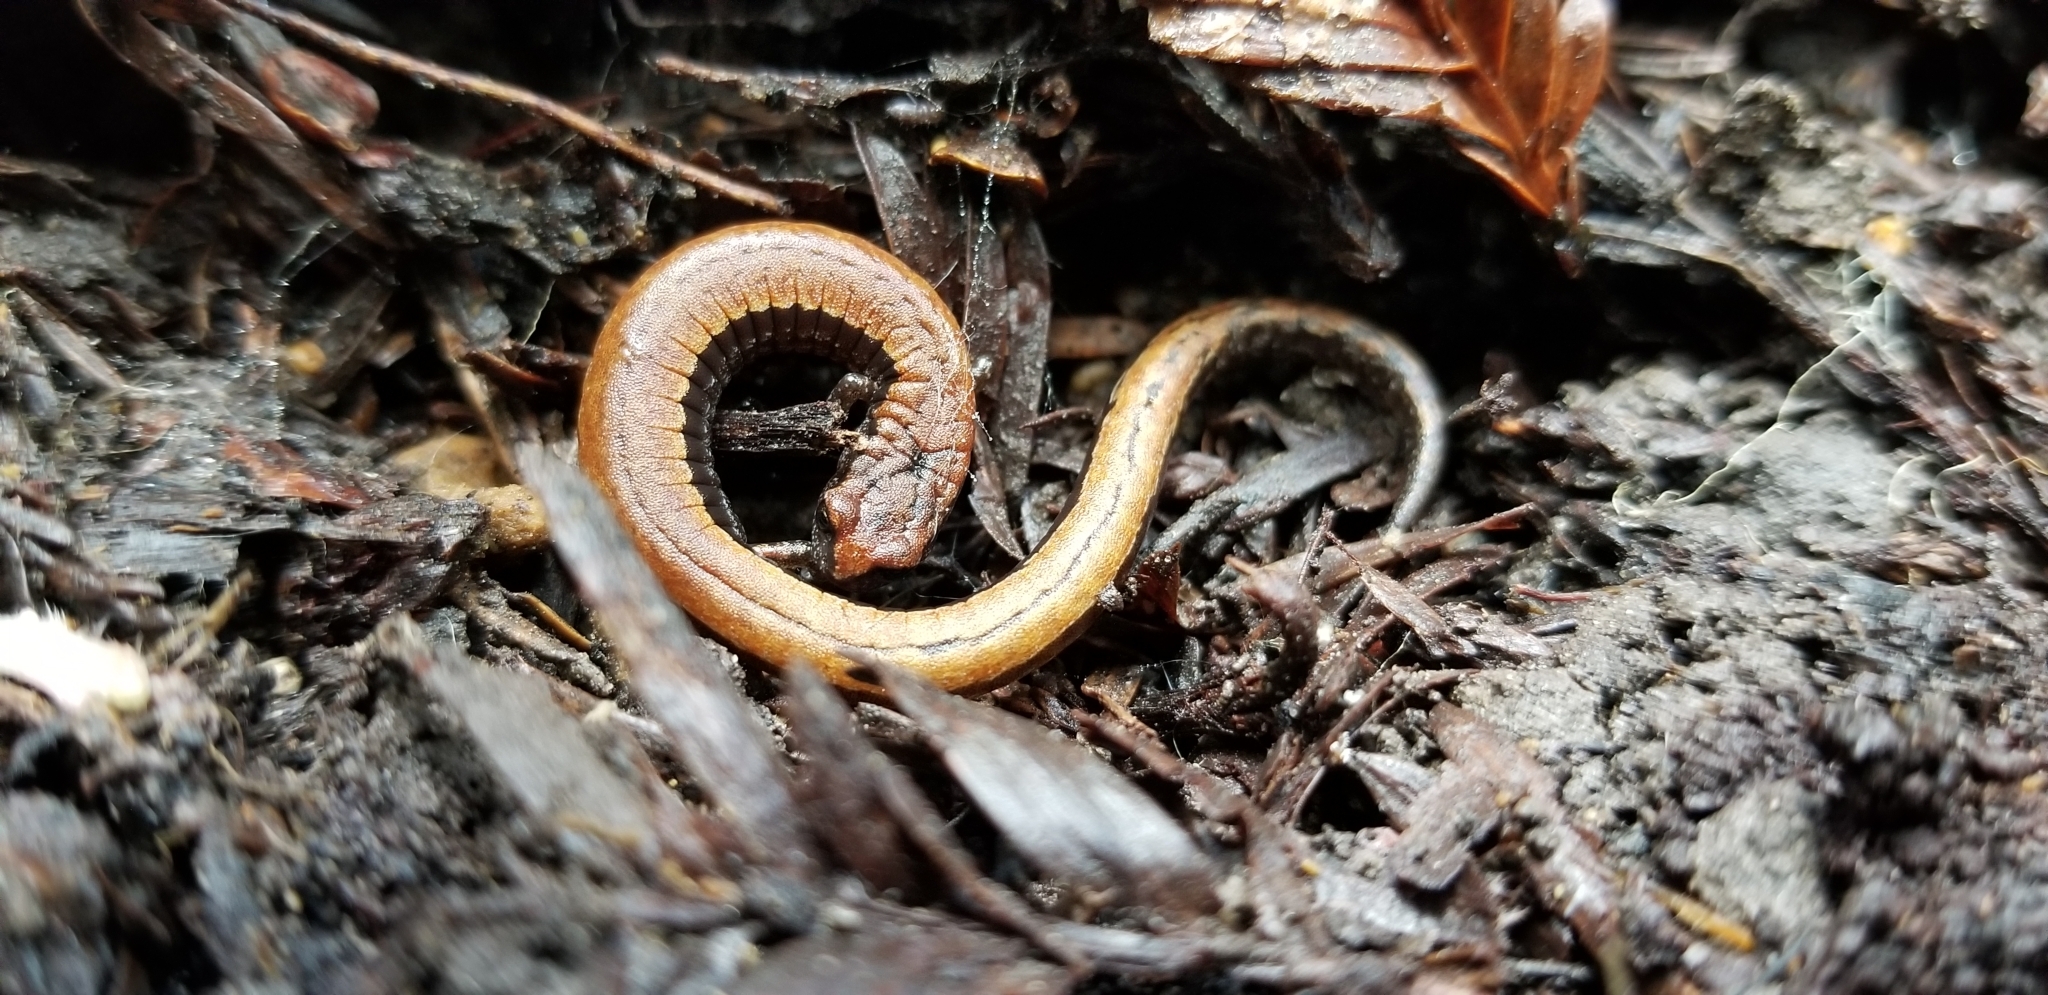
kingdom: Animalia
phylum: Chordata
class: Amphibia
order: Caudata
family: Plethodontidae
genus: Batrachoseps
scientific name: Batrachoseps attenuatus
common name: California slender salamander
